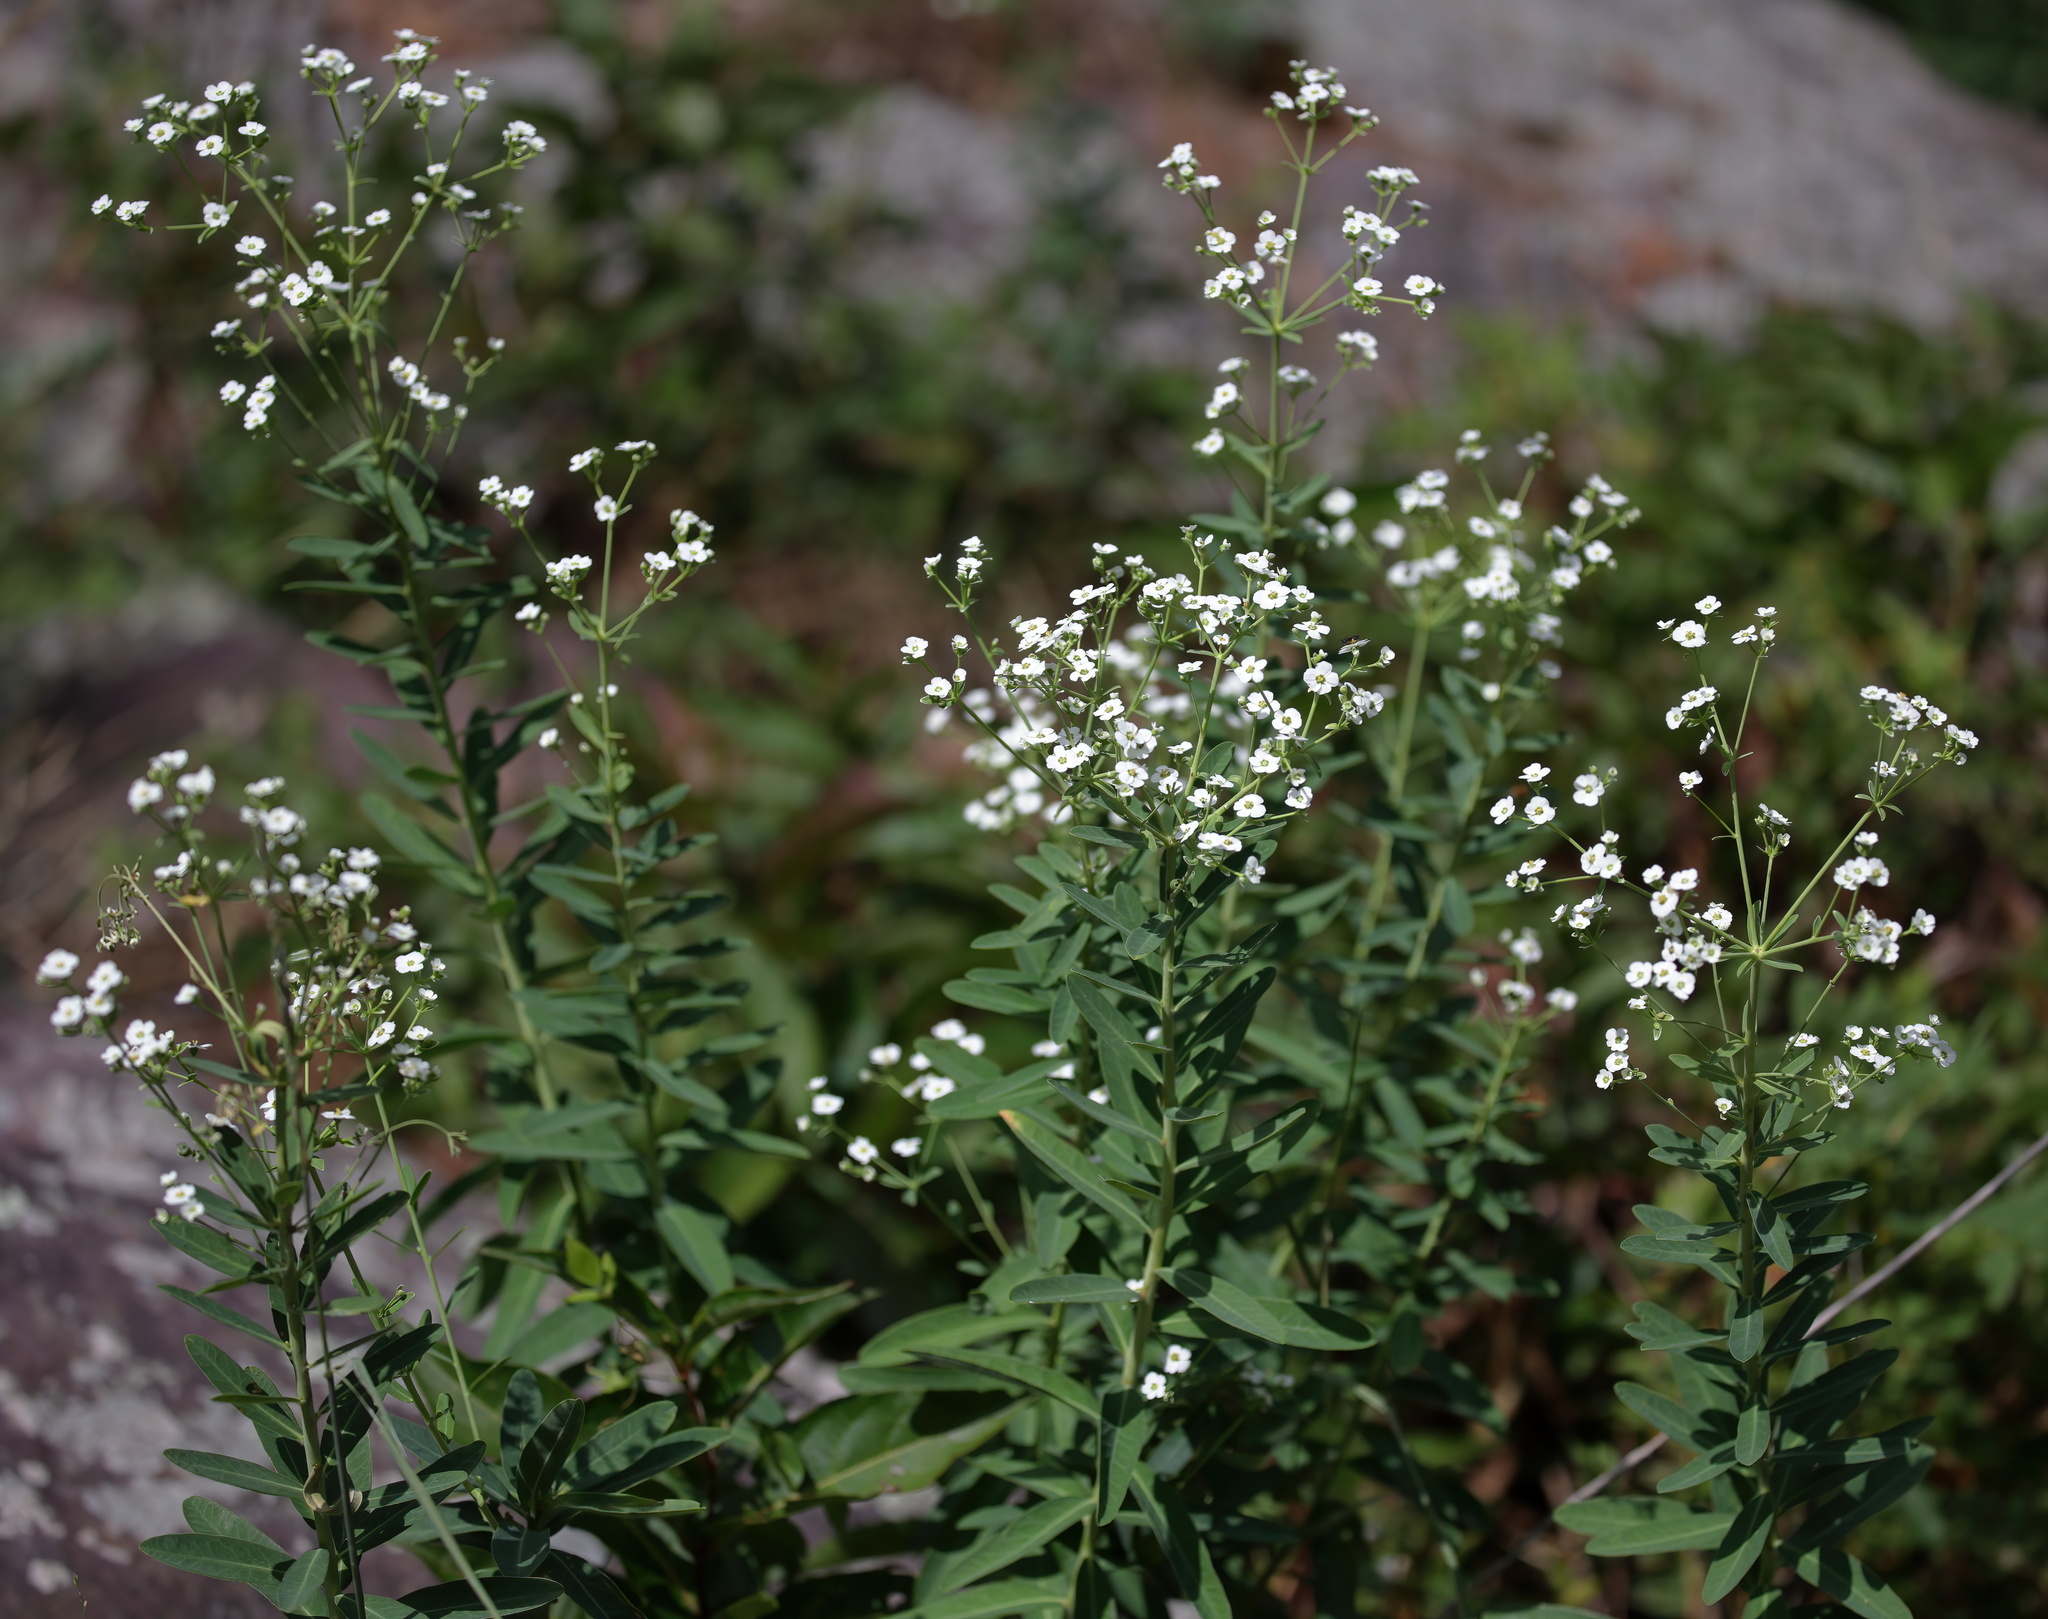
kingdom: Plantae
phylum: Tracheophyta
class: Magnoliopsida
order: Malpighiales
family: Euphorbiaceae
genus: Euphorbia
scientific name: Euphorbia corollata
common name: Flowering spurge
